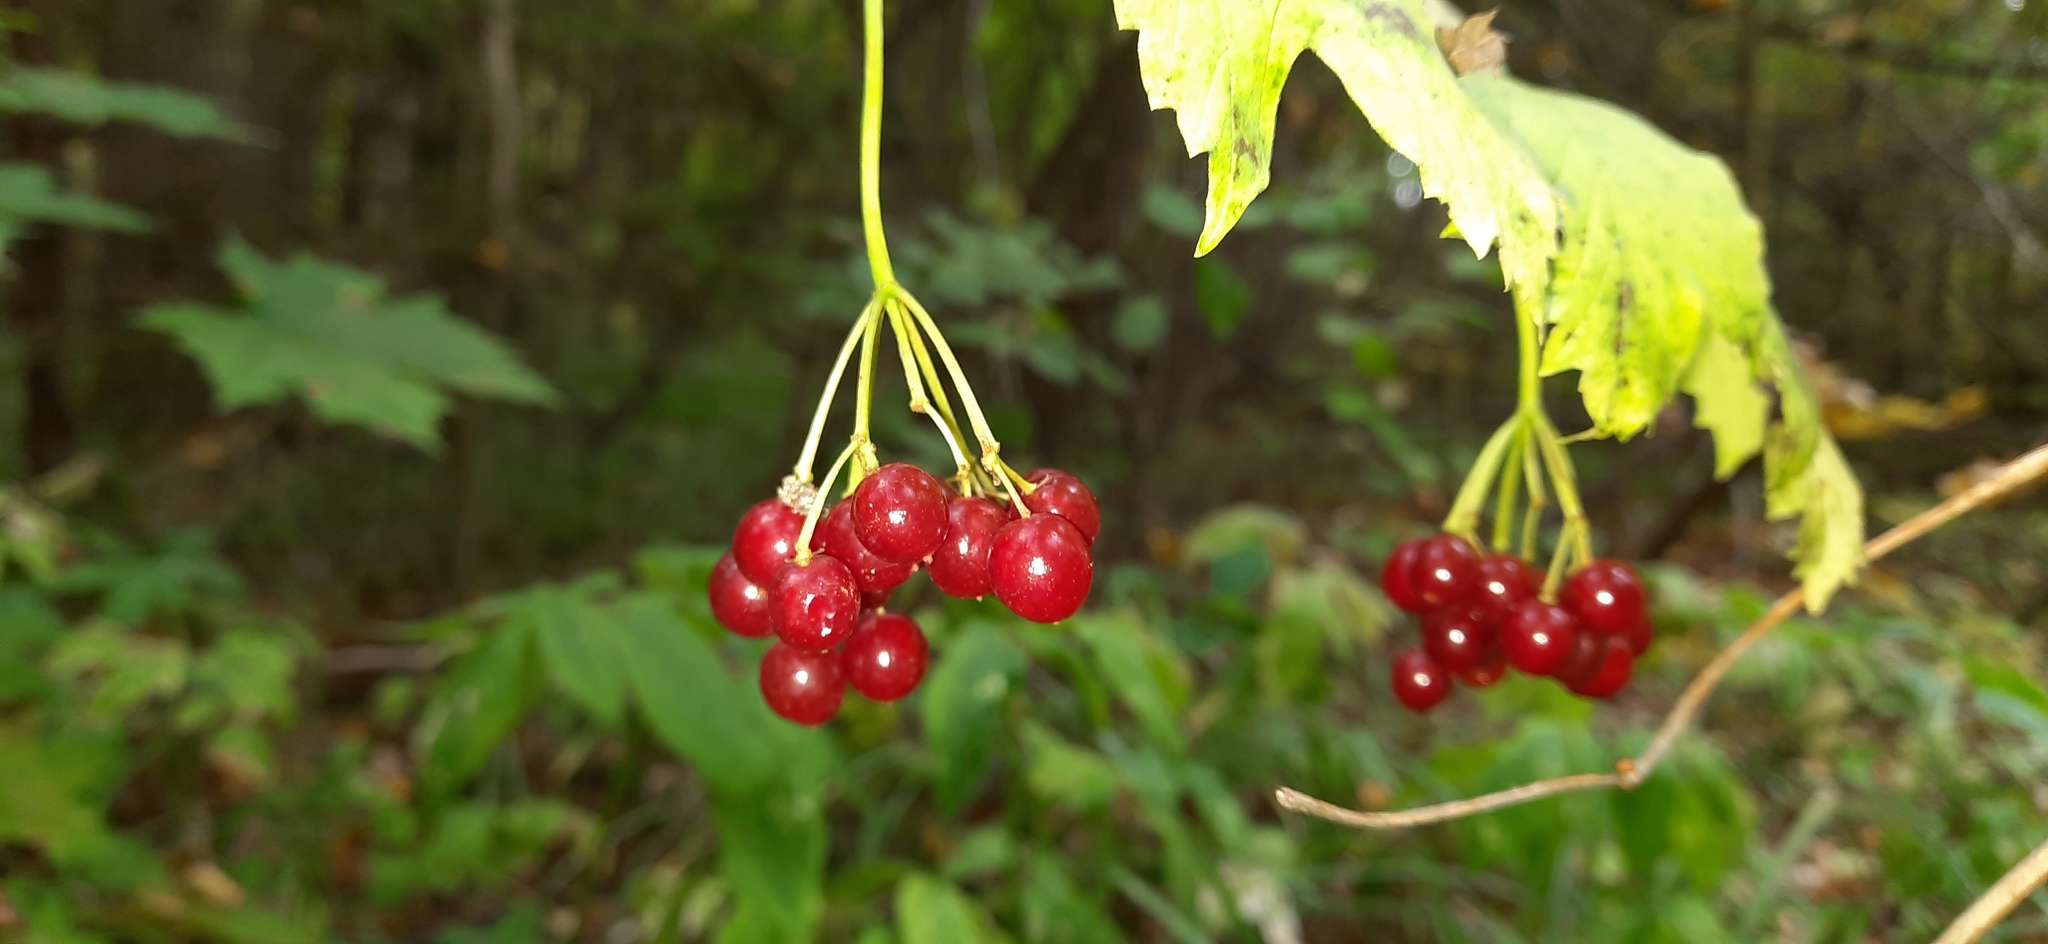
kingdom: Plantae
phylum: Tracheophyta
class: Magnoliopsida
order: Dipsacales
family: Viburnaceae
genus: Viburnum
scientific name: Viburnum opulus
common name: Guelder-rose
